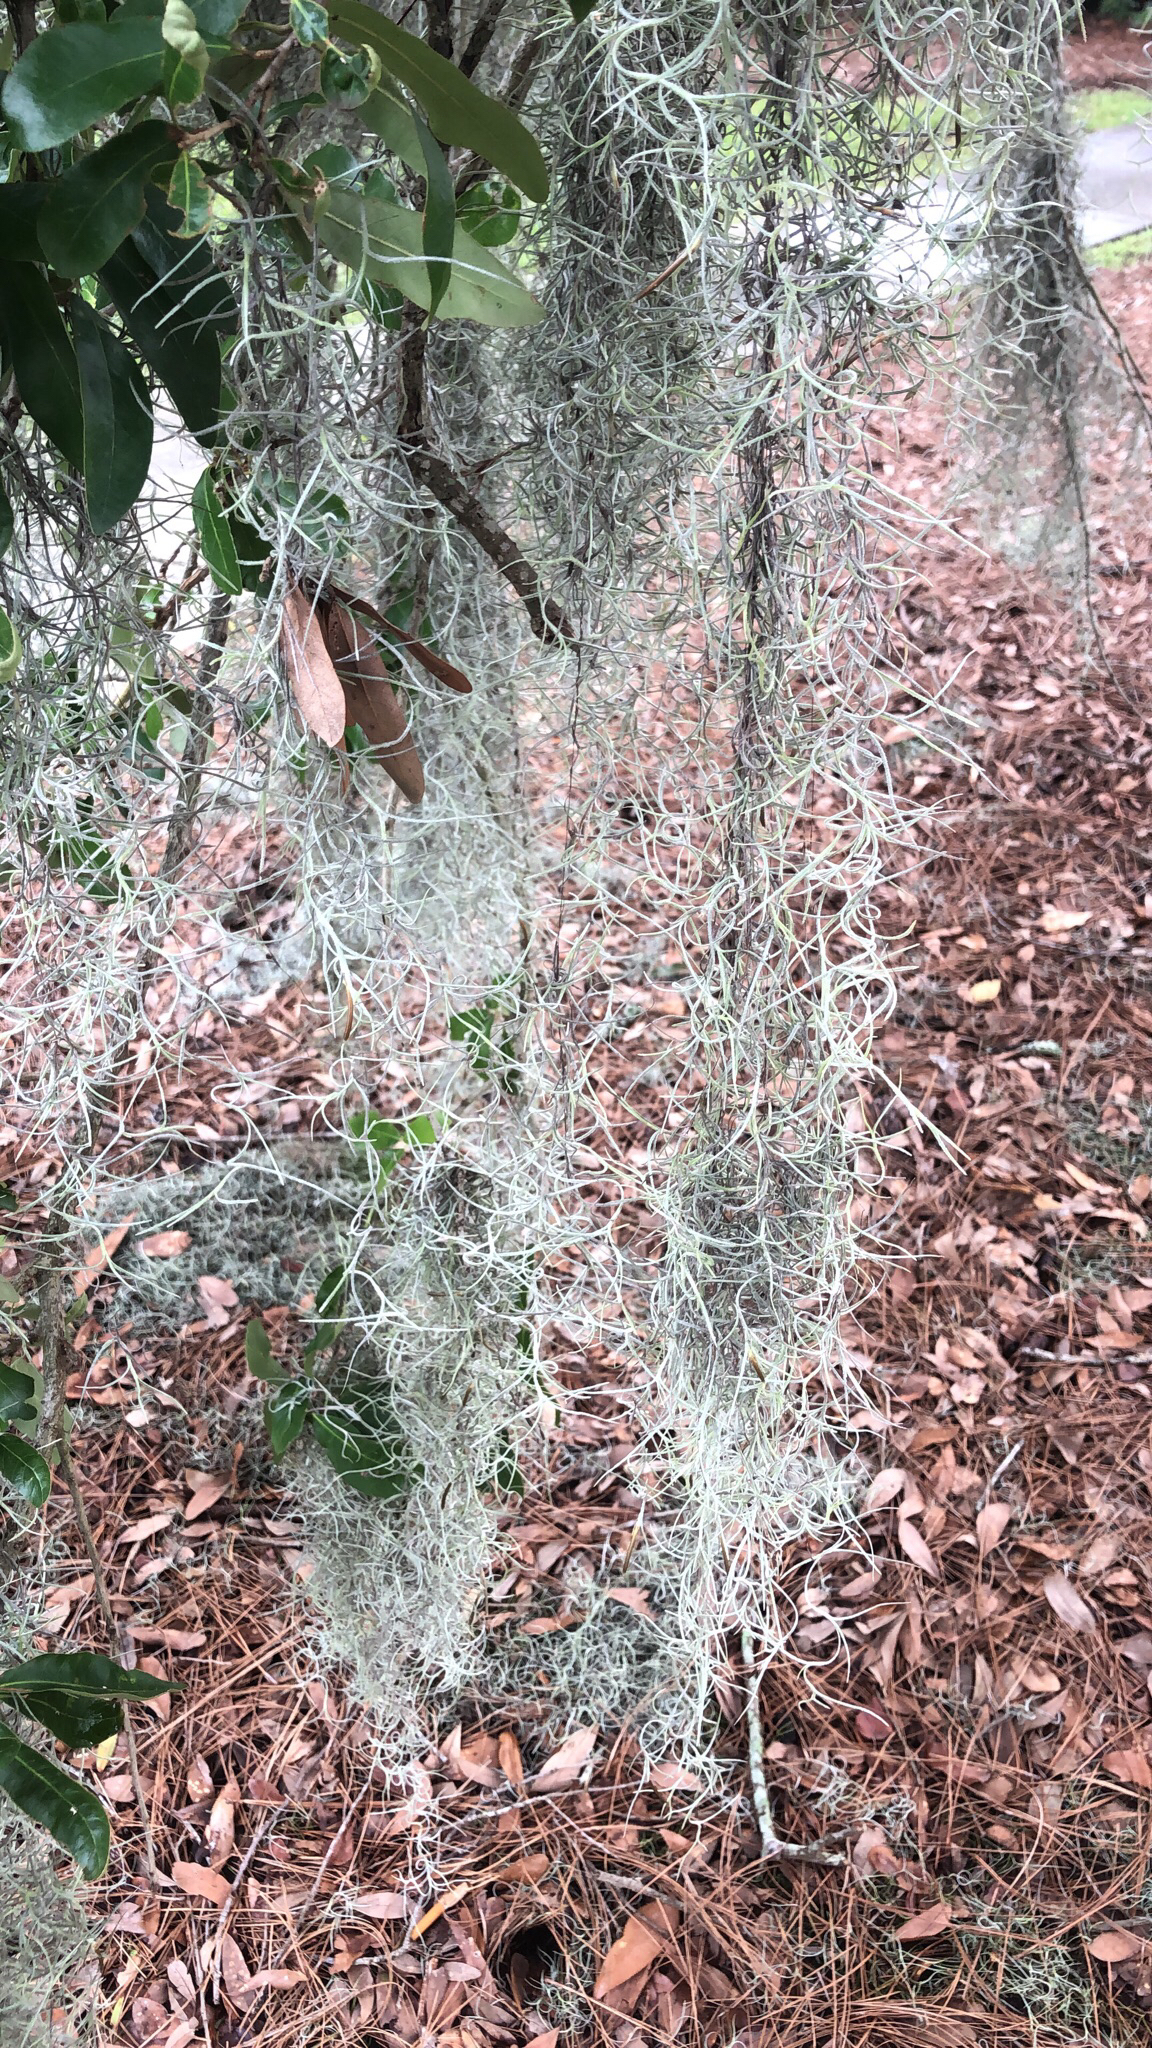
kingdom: Plantae
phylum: Tracheophyta
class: Liliopsida
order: Poales
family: Bromeliaceae
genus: Tillandsia
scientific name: Tillandsia usneoides
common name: Spanish moss
